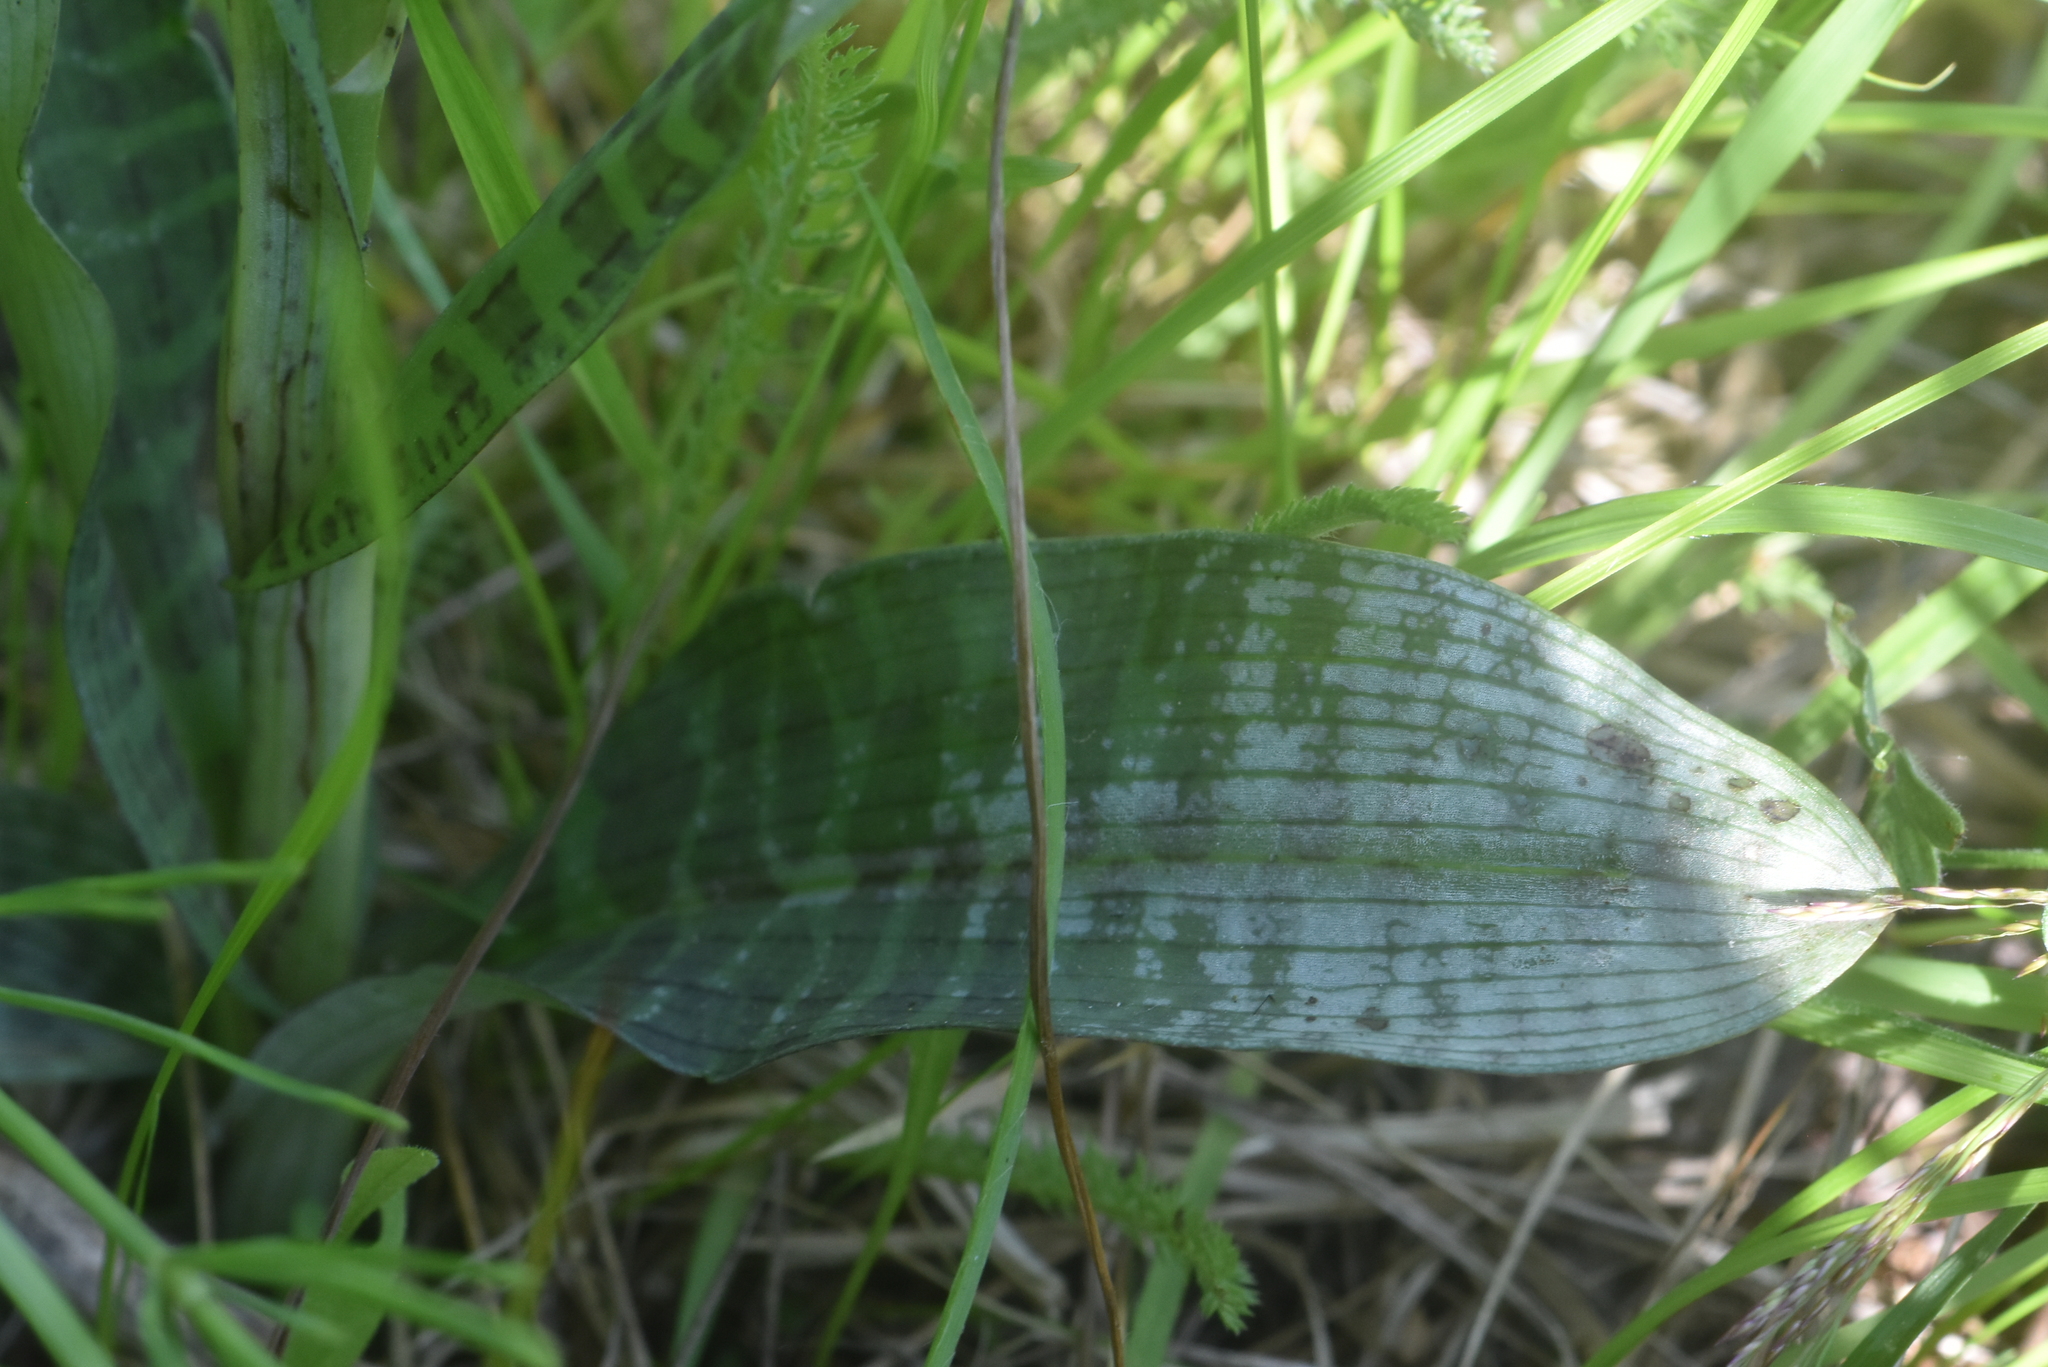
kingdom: Plantae
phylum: Tracheophyta
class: Liliopsida
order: Asparagales
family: Orchidaceae
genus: Dactylorhiza
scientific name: Dactylorhiza majalis
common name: Marsh orchid
